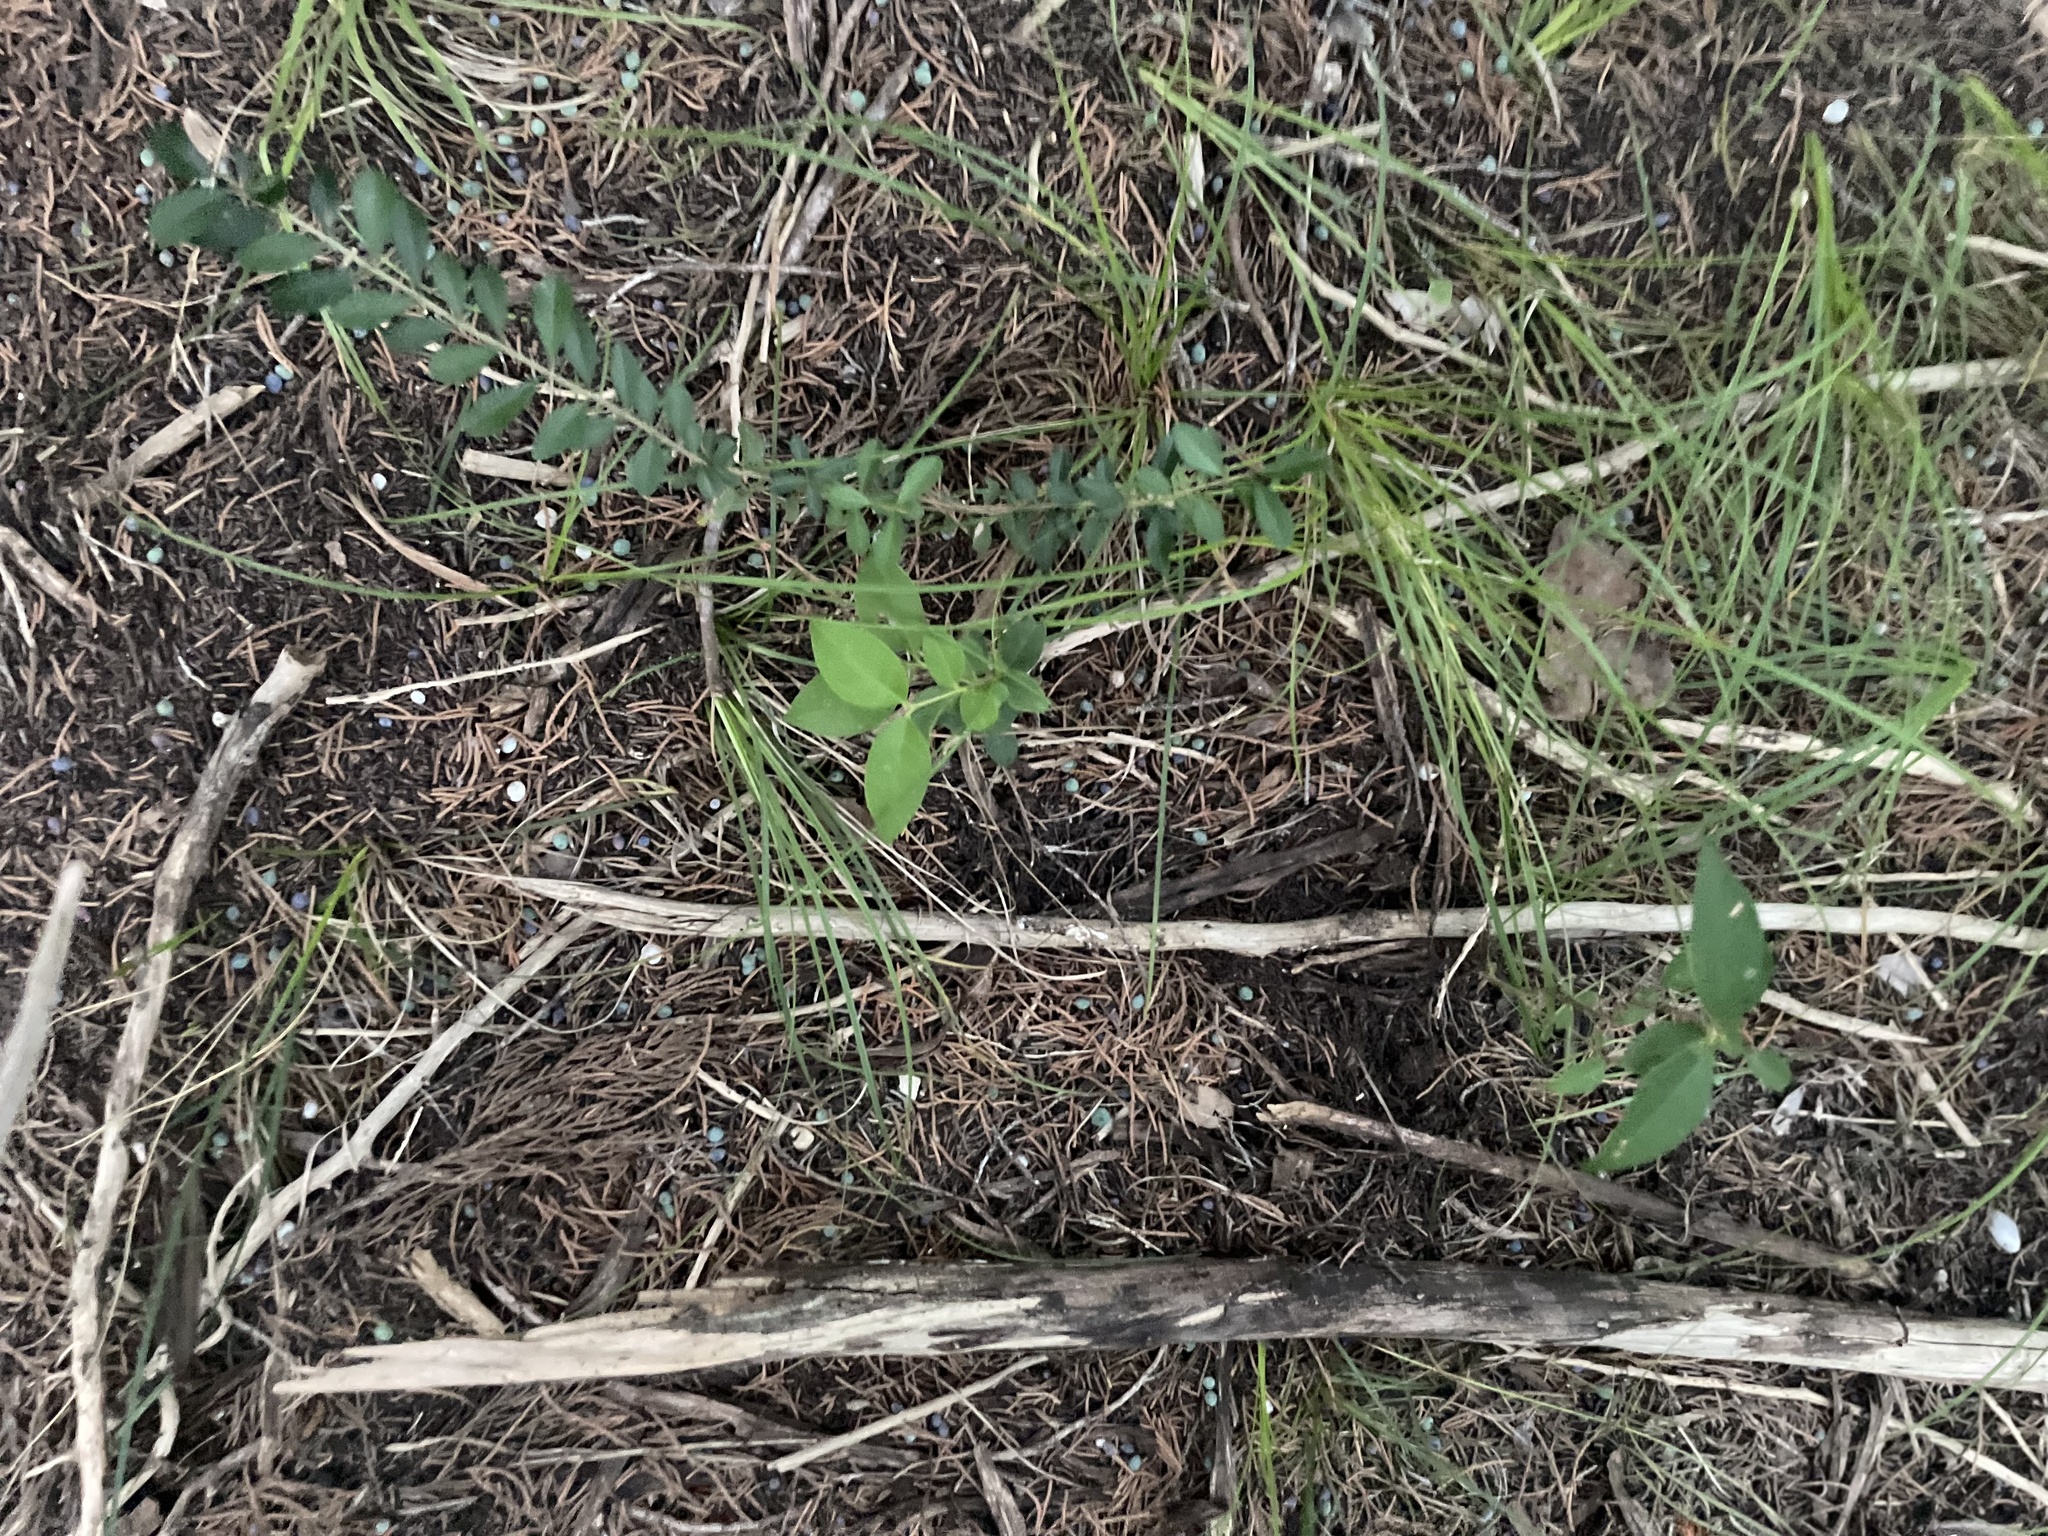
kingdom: Plantae
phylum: Tracheophyta
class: Magnoliopsida
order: Lamiales
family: Oleaceae
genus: Ligustrum
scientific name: Ligustrum lucidum
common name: Glossy privet
